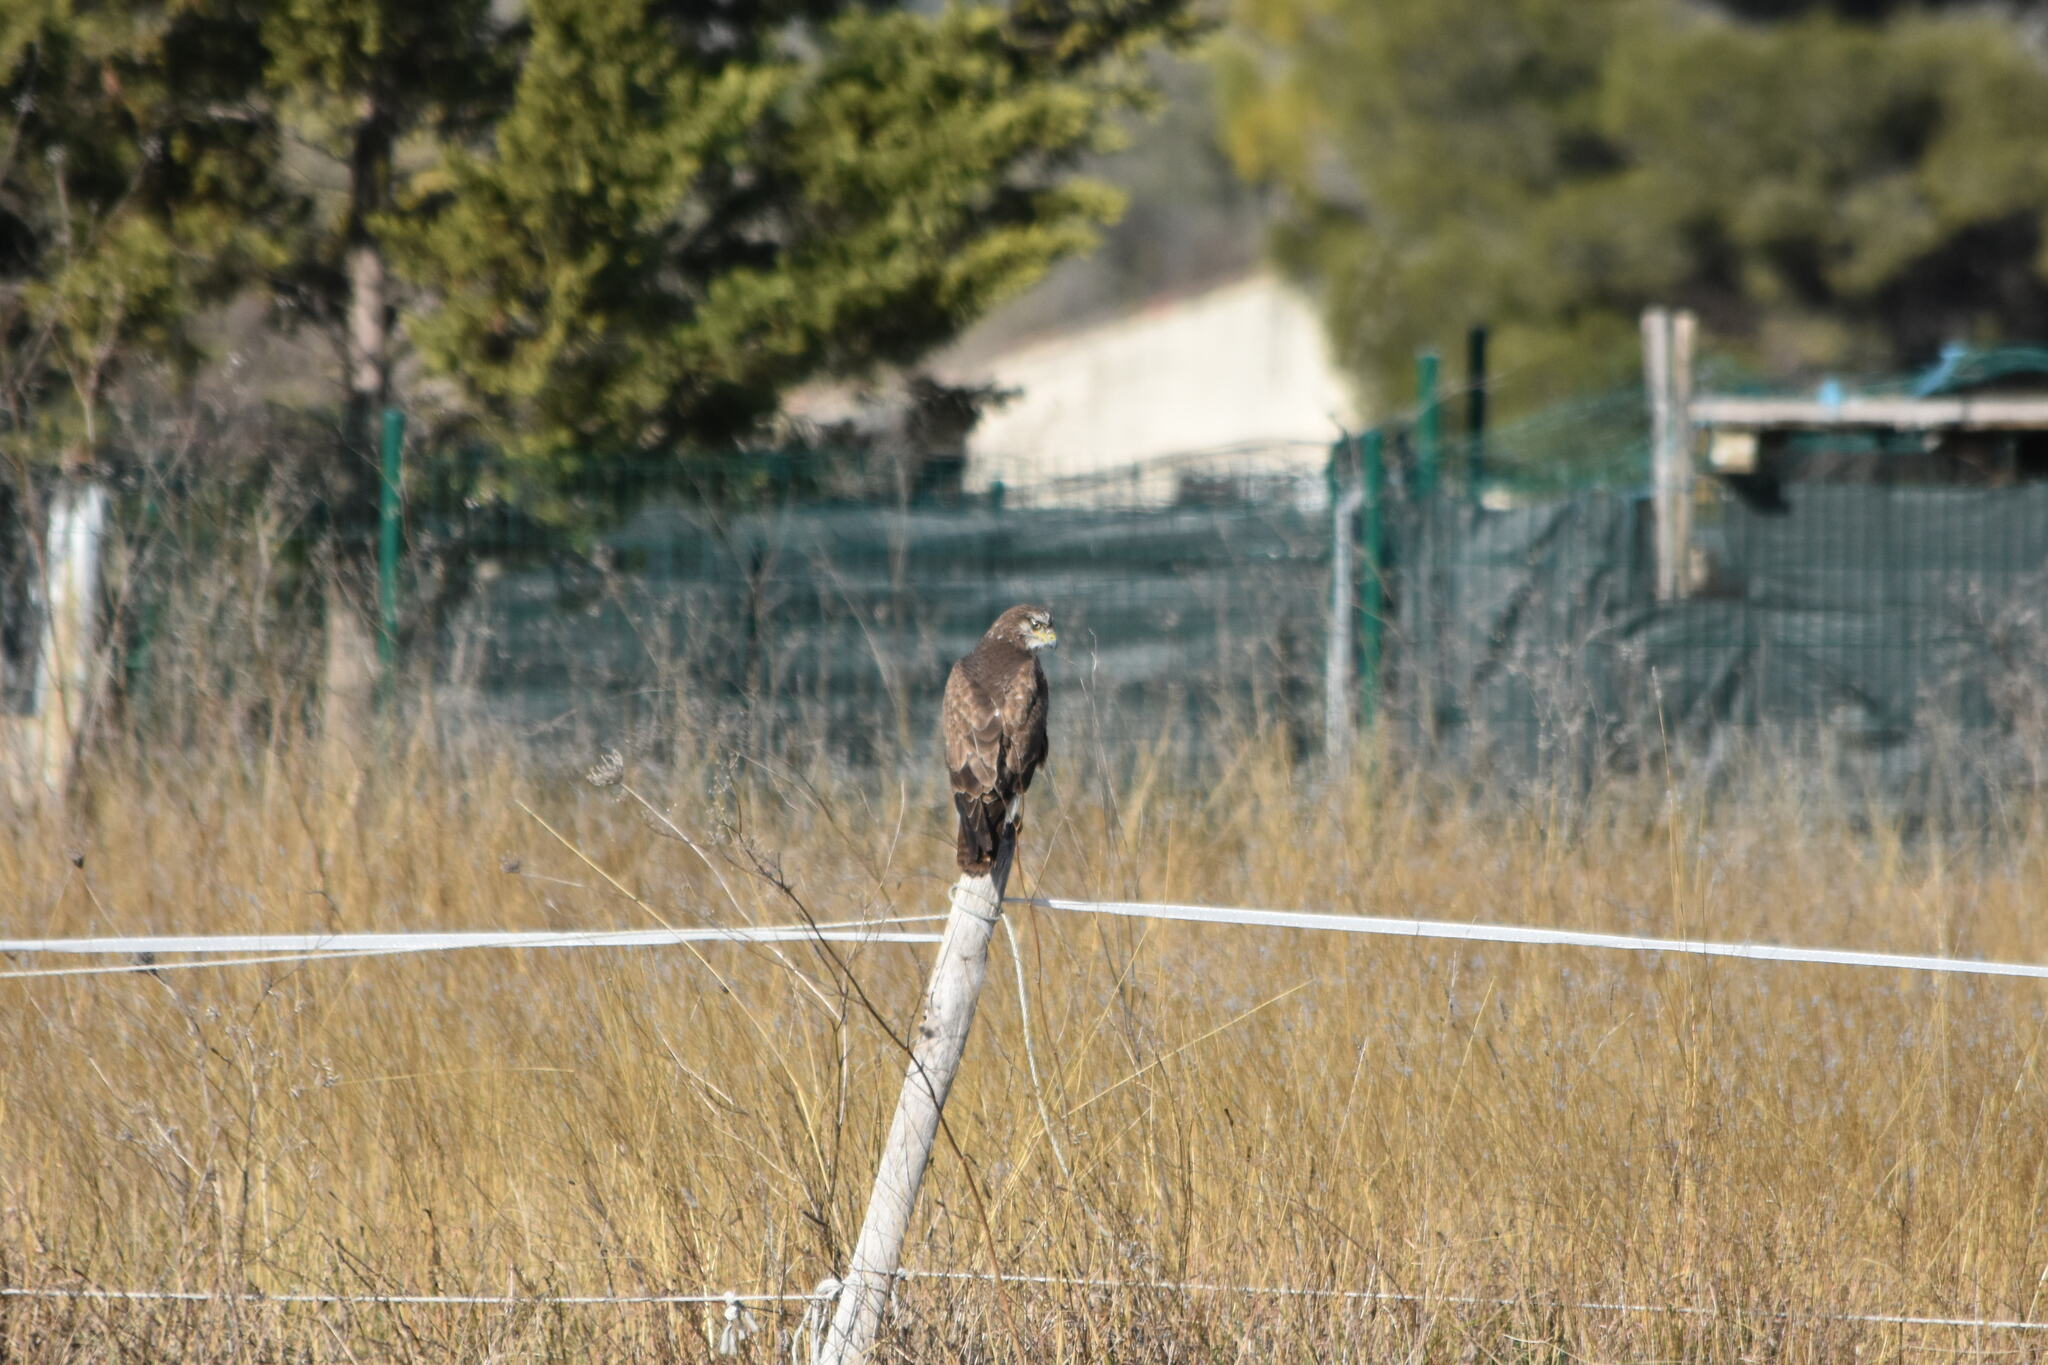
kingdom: Animalia
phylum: Chordata
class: Aves
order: Accipitriformes
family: Accipitridae
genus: Buteo
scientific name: Buteo buteo
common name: Common buzzard
